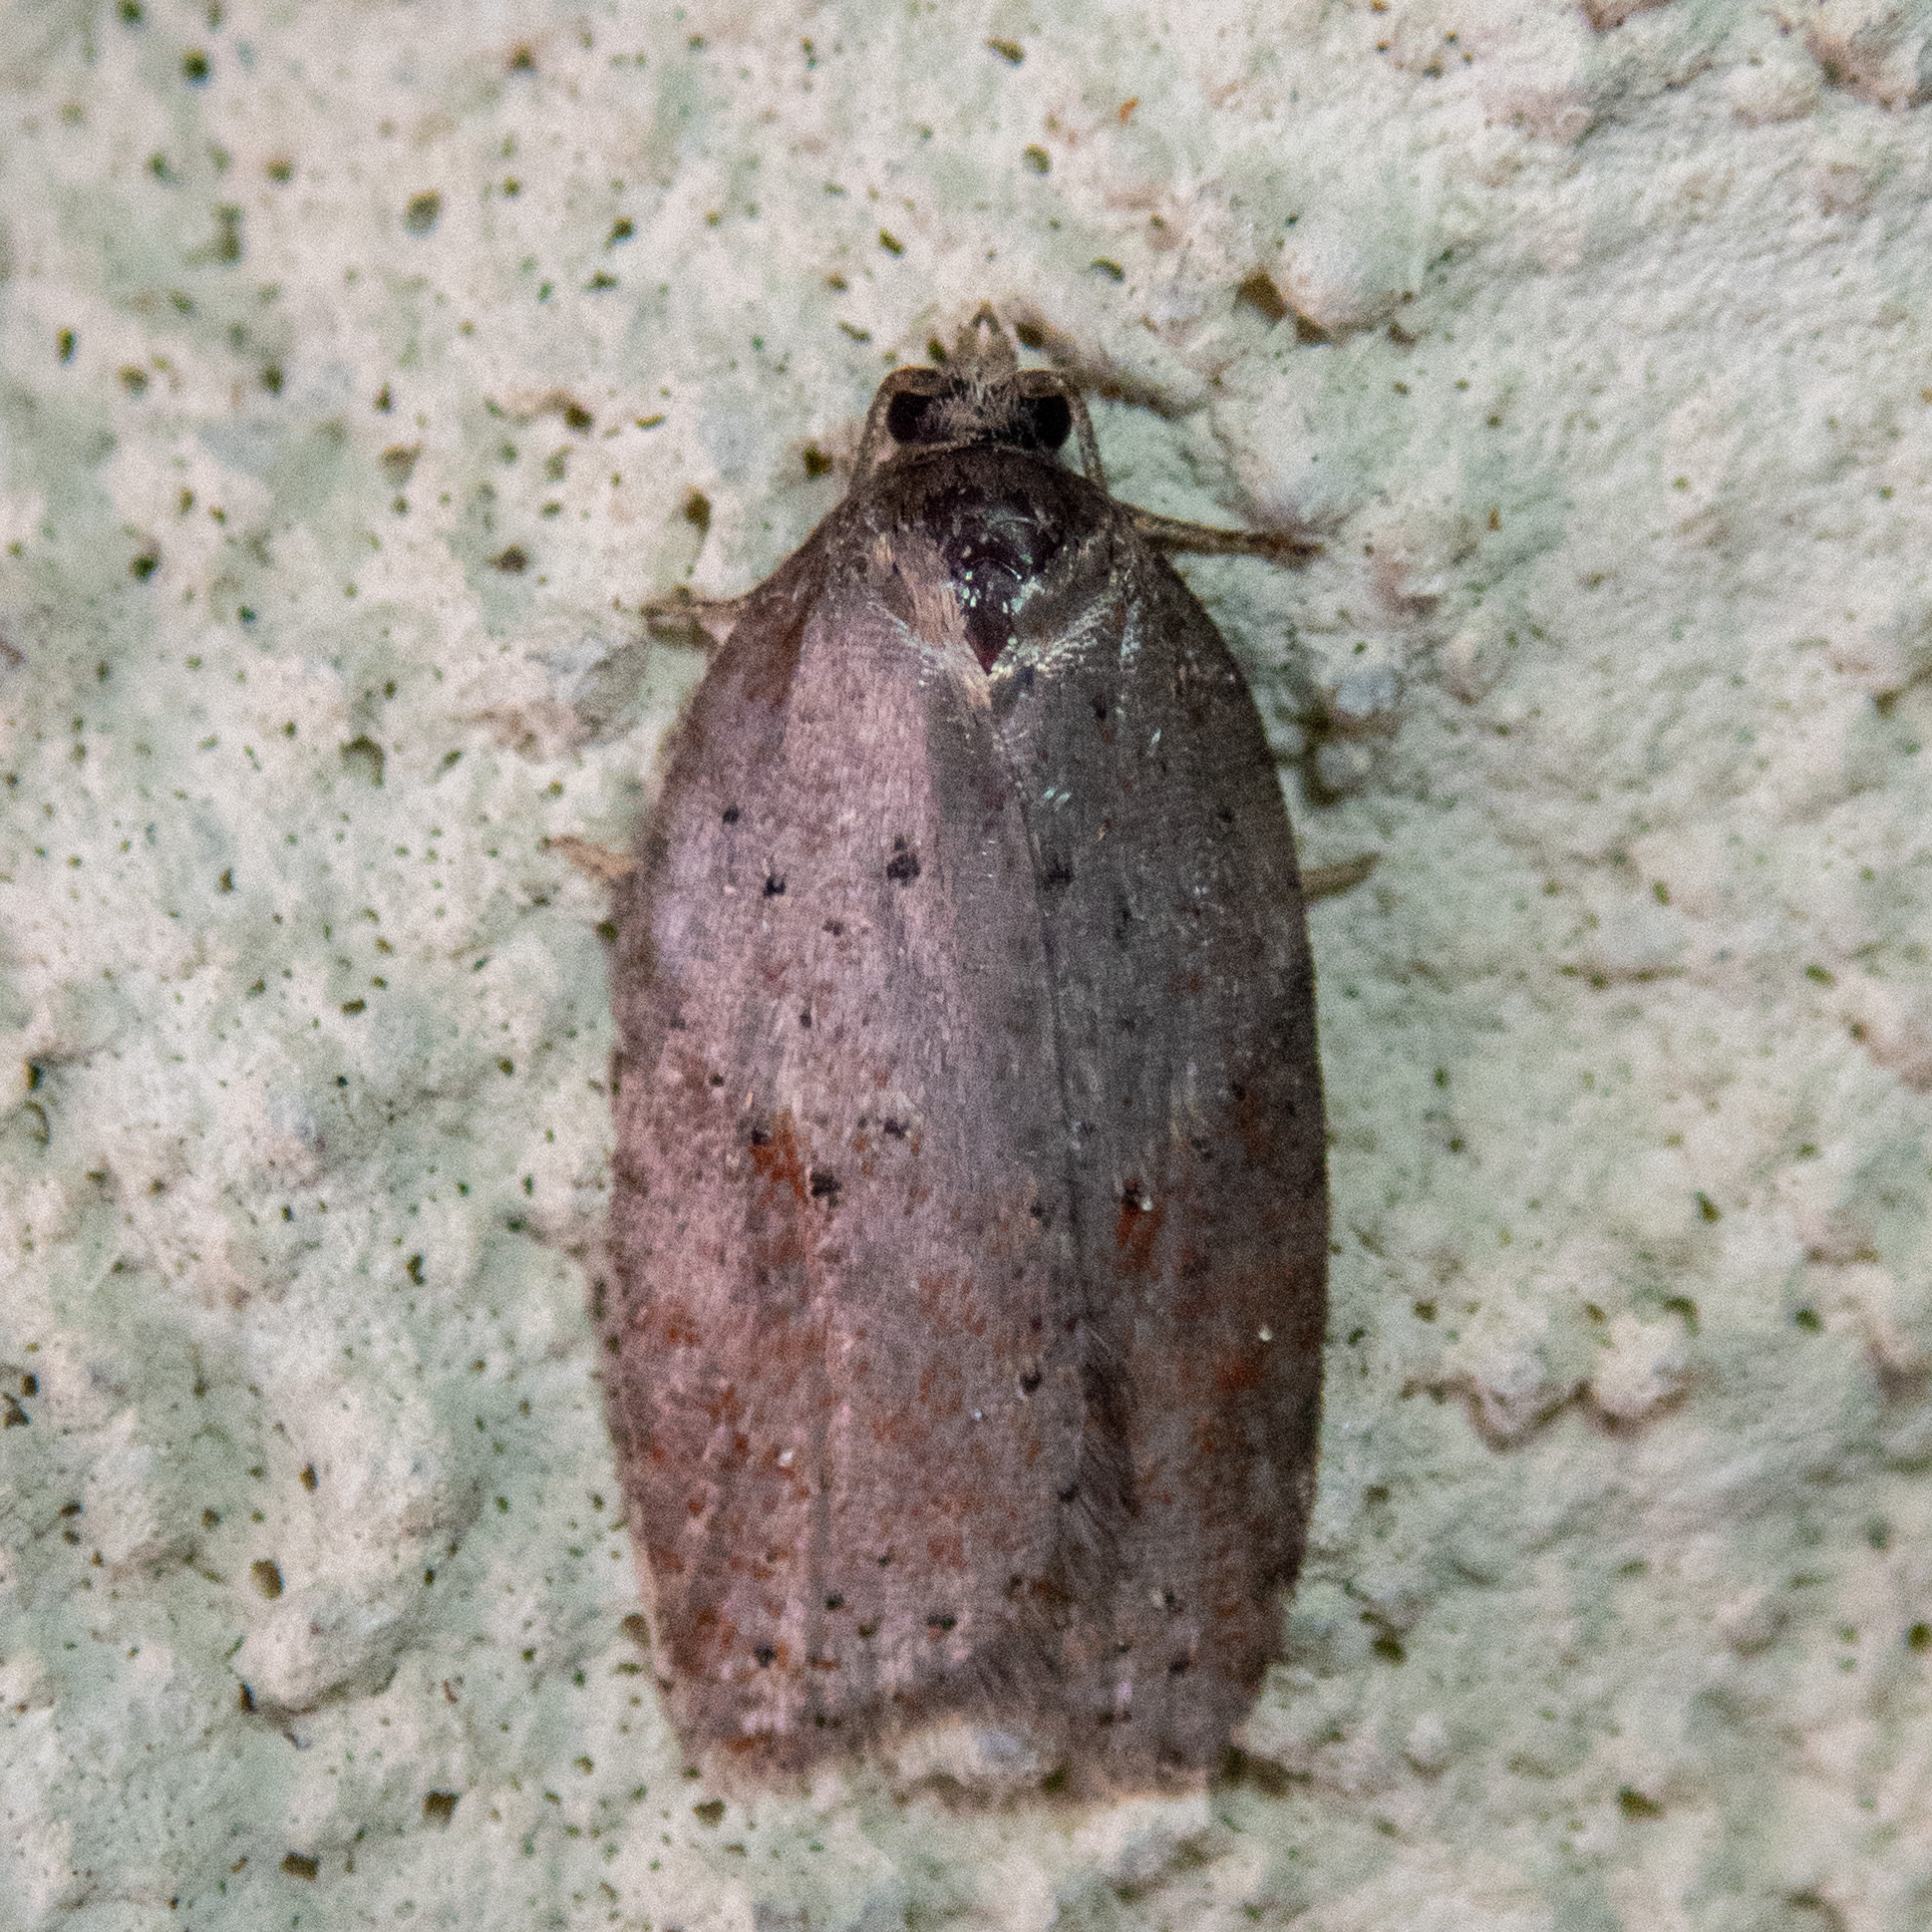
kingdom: Animalia
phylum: Arthropoda
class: Insecta
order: Lepidoptera
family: Tortricidae
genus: Acleris
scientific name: Acleris schalleriana
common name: Viburnum button
